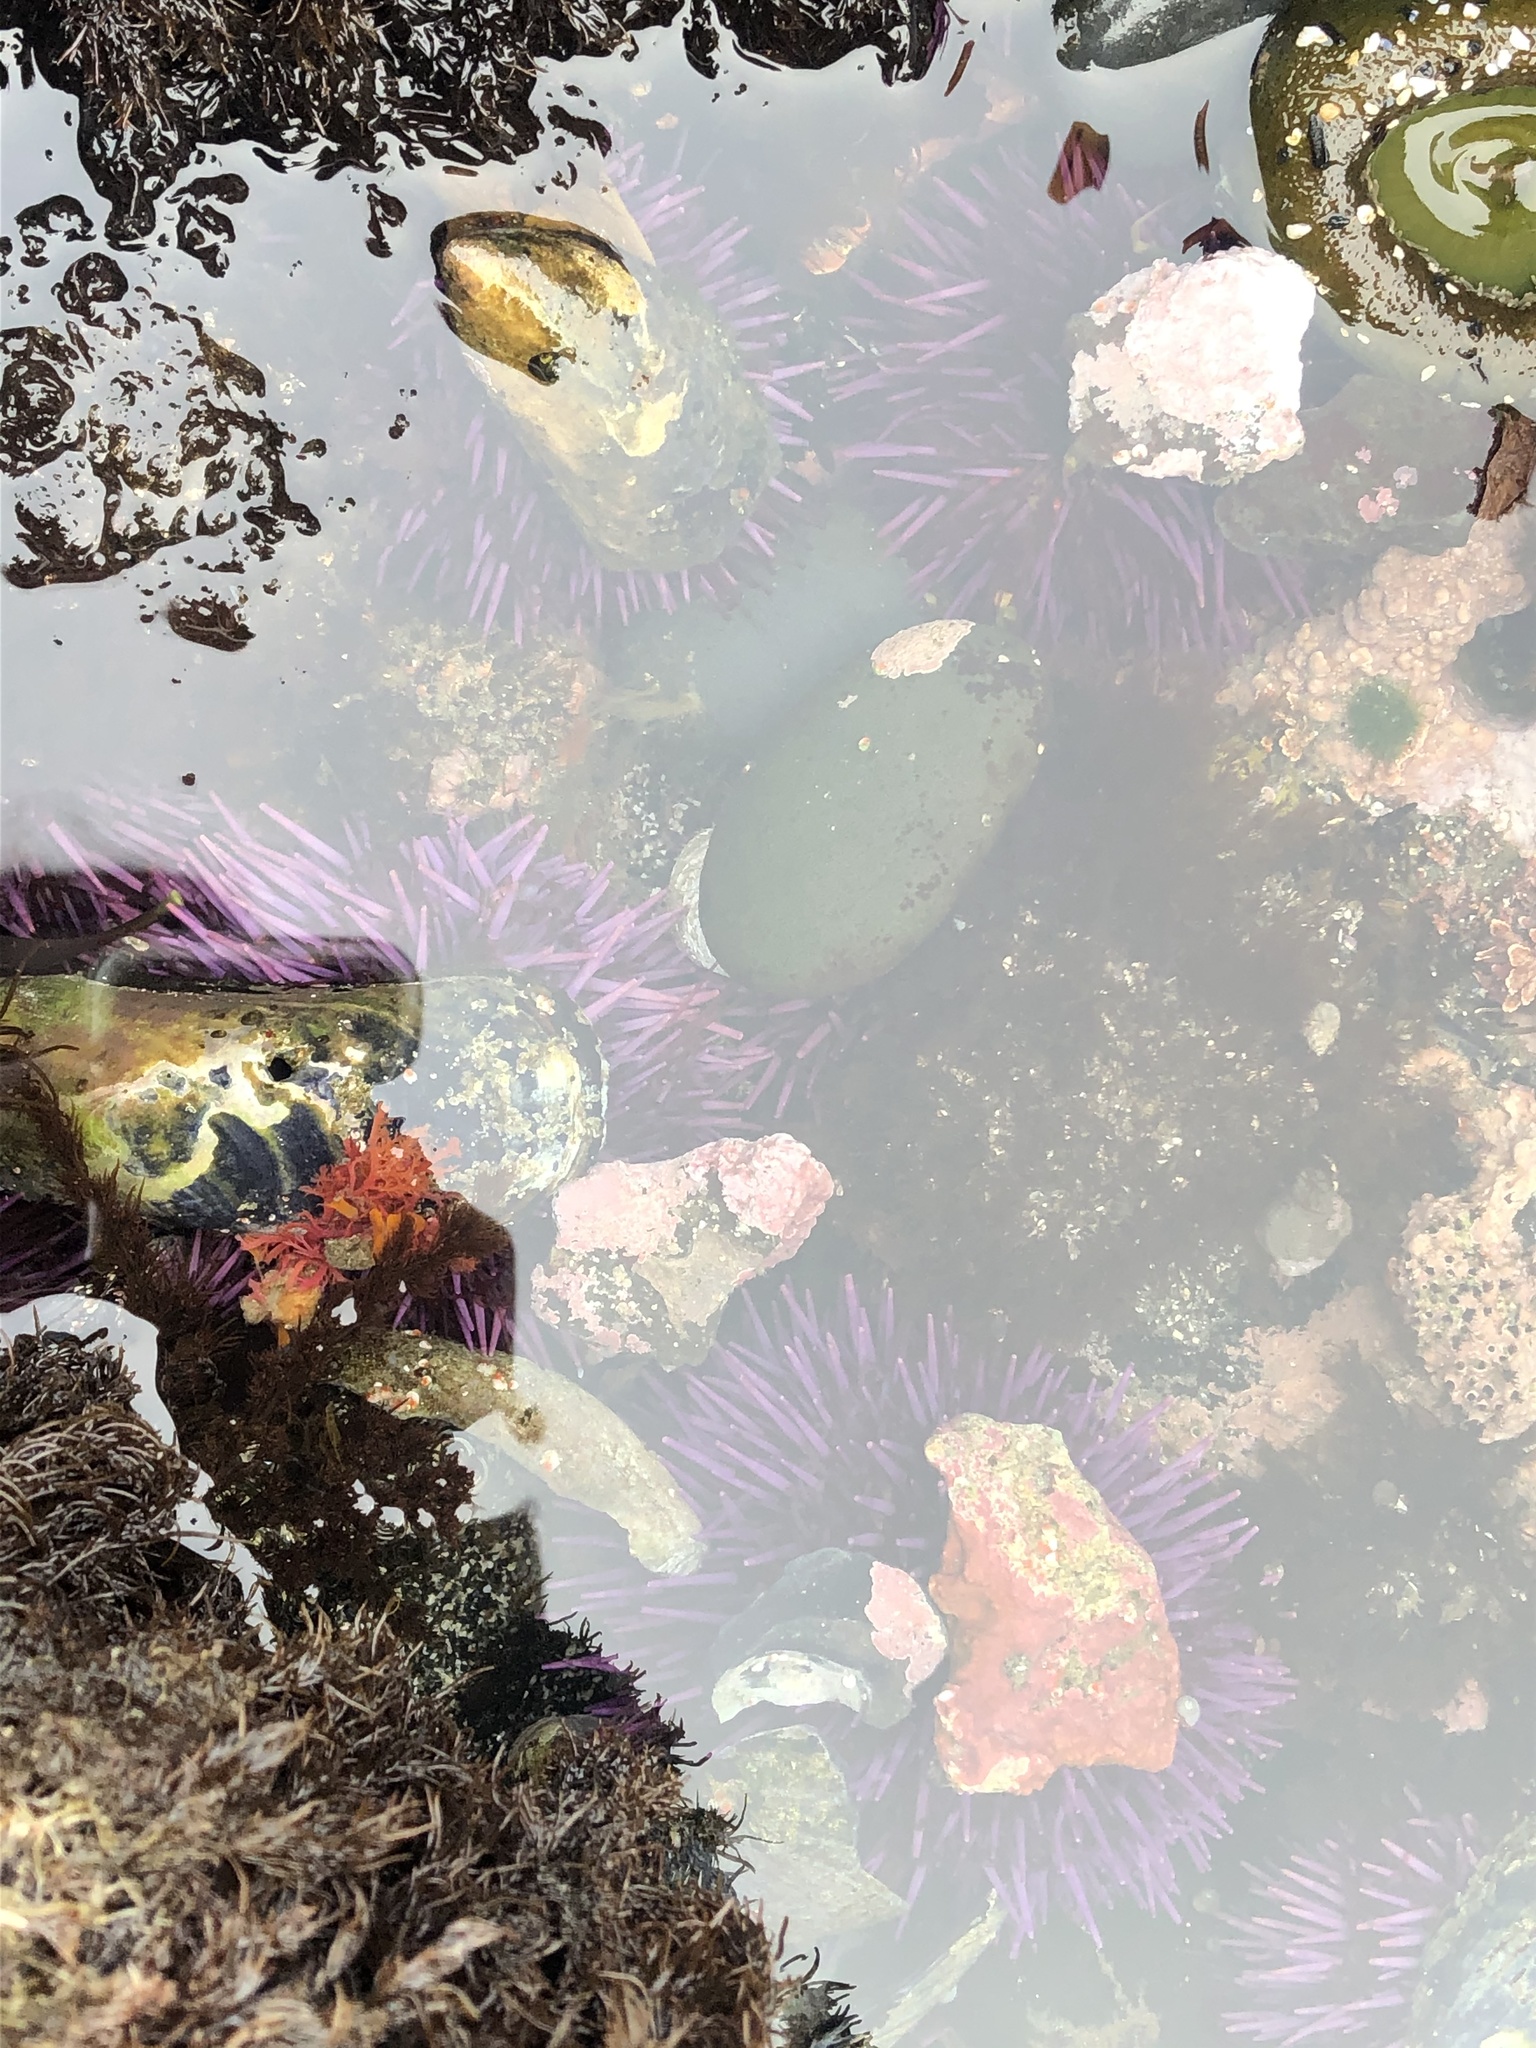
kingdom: Animalia
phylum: Echinodermata
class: Echinoidea
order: Camarodonta
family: Strongylocentrotidae
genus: Strongylocentrotus
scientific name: Strongylocentrotus purpuratus
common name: Purple sea urchin
